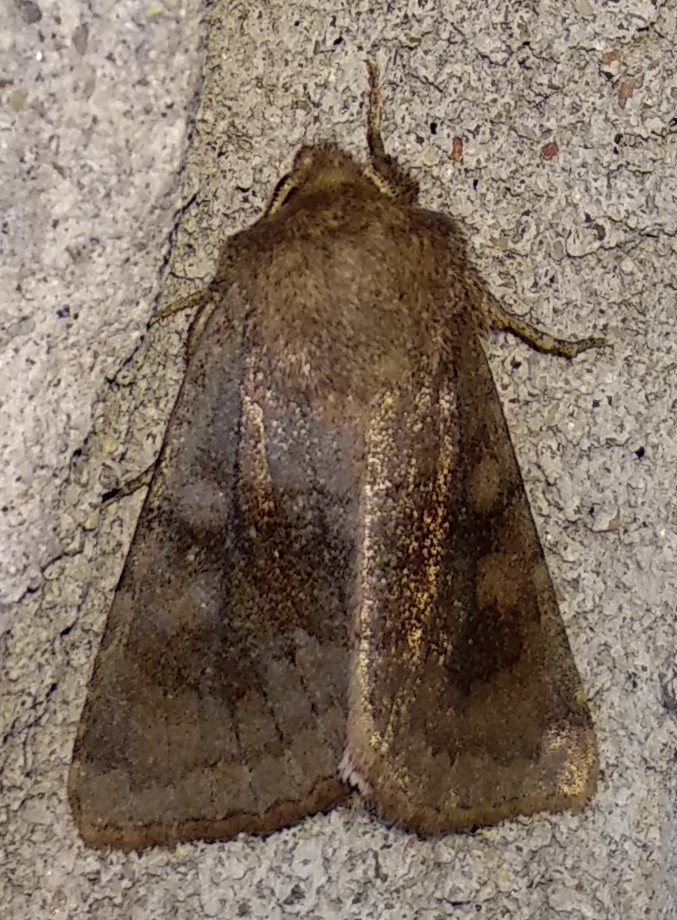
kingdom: Animalia
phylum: Arthropoda
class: Insecta
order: Lepidoptera
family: Noctuidae
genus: Nephelodes
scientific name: Nephelodes minians
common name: Bronzed cutworm
